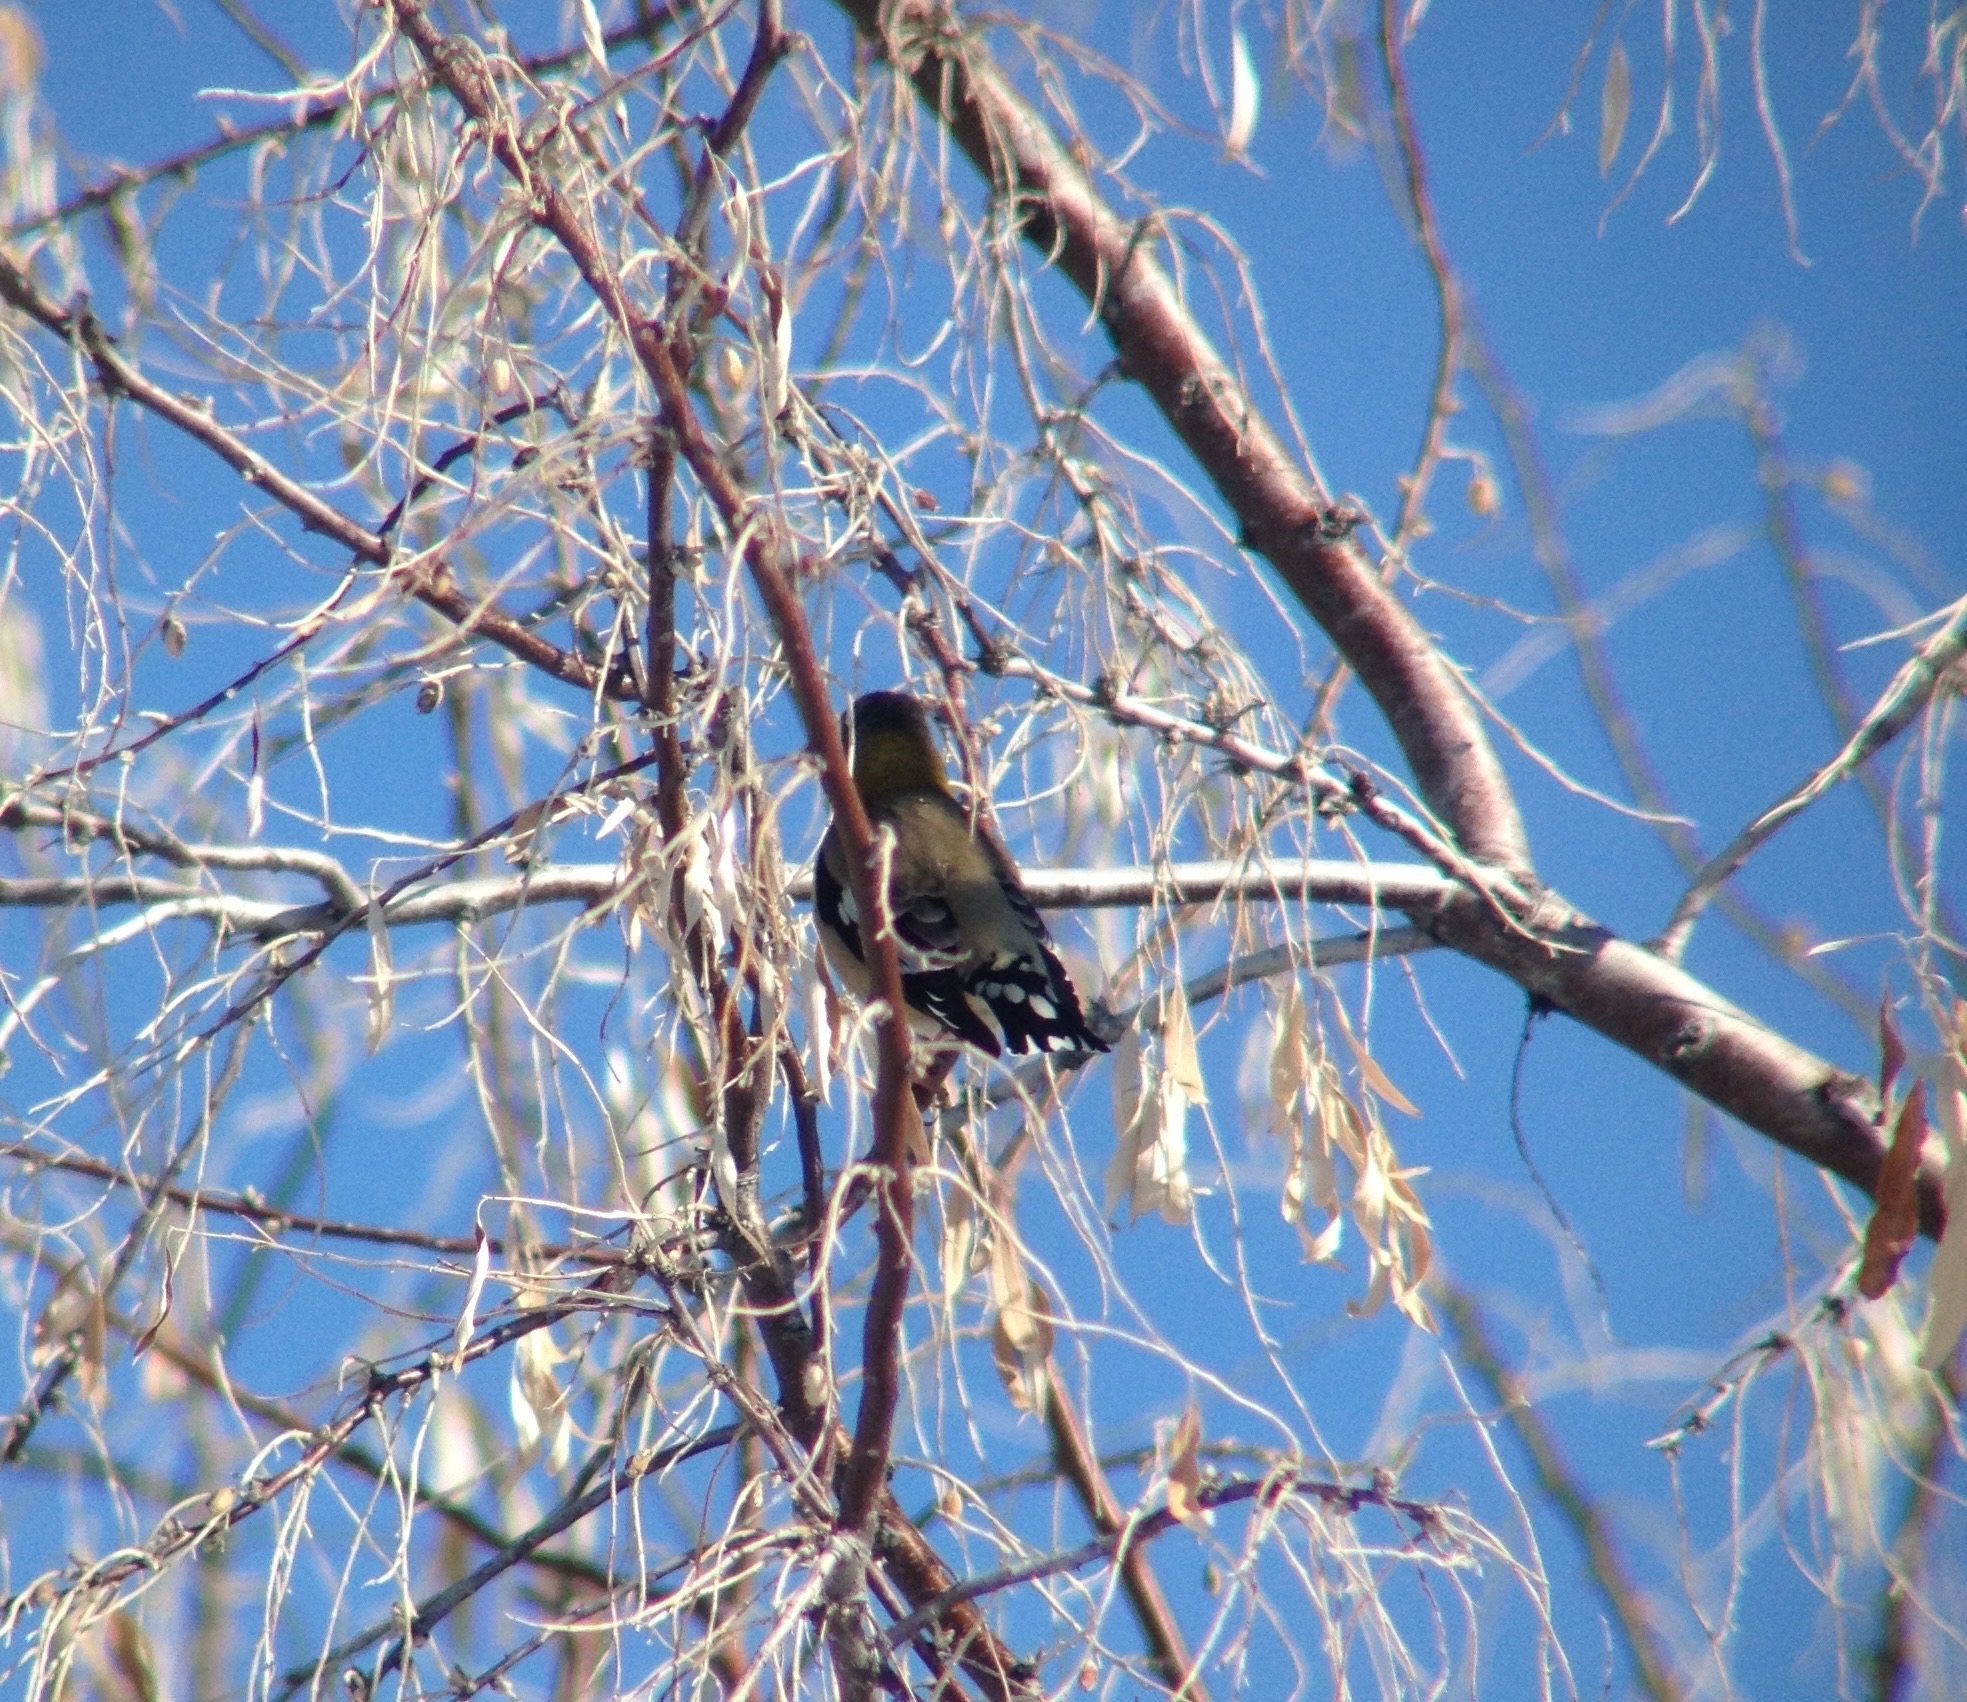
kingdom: Animalia
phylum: Chordata
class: Aves
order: Passeriformes
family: Fringillidae
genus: Hesperiphona
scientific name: Hesperiphona vespertina
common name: Evening grosbeak
